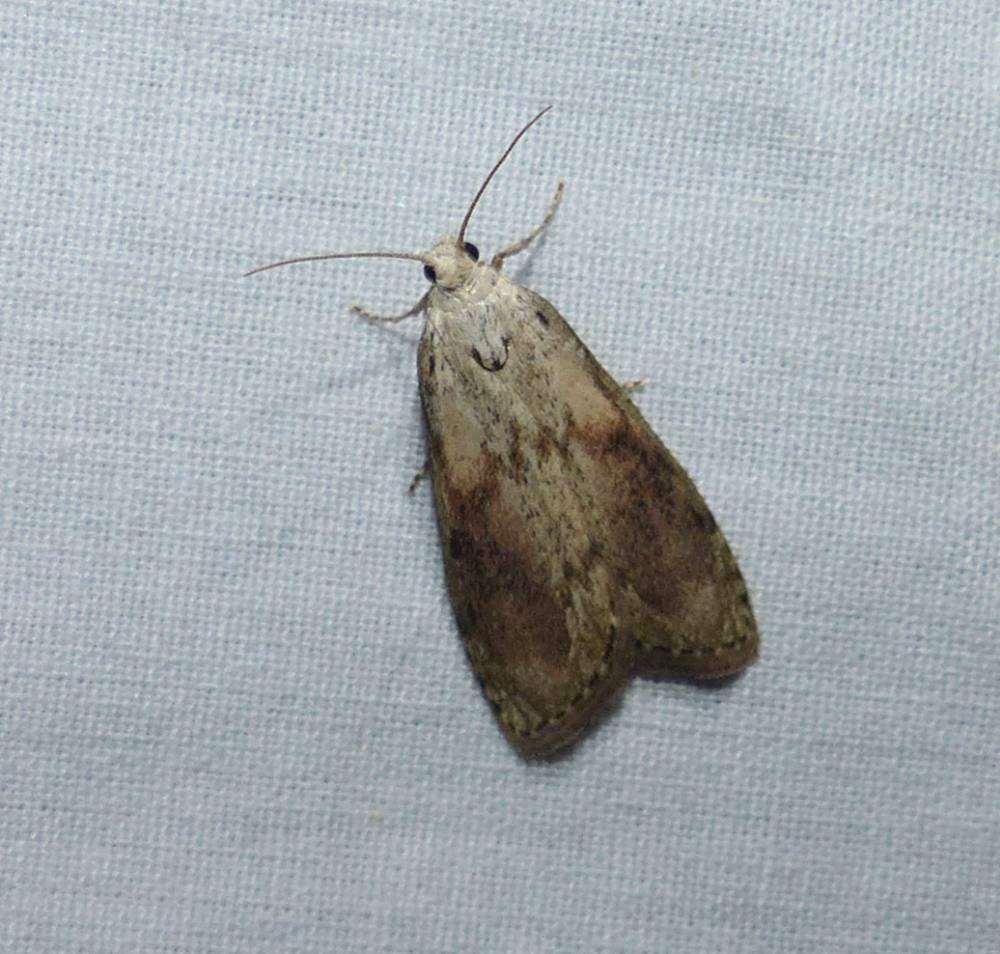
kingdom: Animalia
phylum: Arthropoda
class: Insecta
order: Lepidoptera
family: Pyralidae
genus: Aphomia
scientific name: Aphomia sociella
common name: Bee moth
